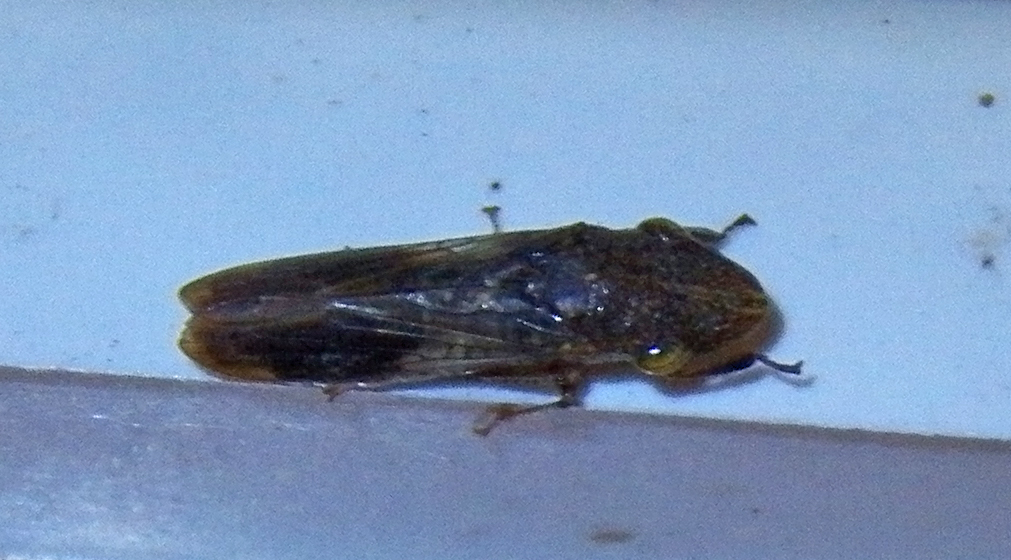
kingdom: Animalia
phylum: Arthropoda
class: Insecta
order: Hemiptera
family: Cicadellidae
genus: Homalodisca
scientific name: Homalodisca vitripennis
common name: Glassy-winged sharpshooter
